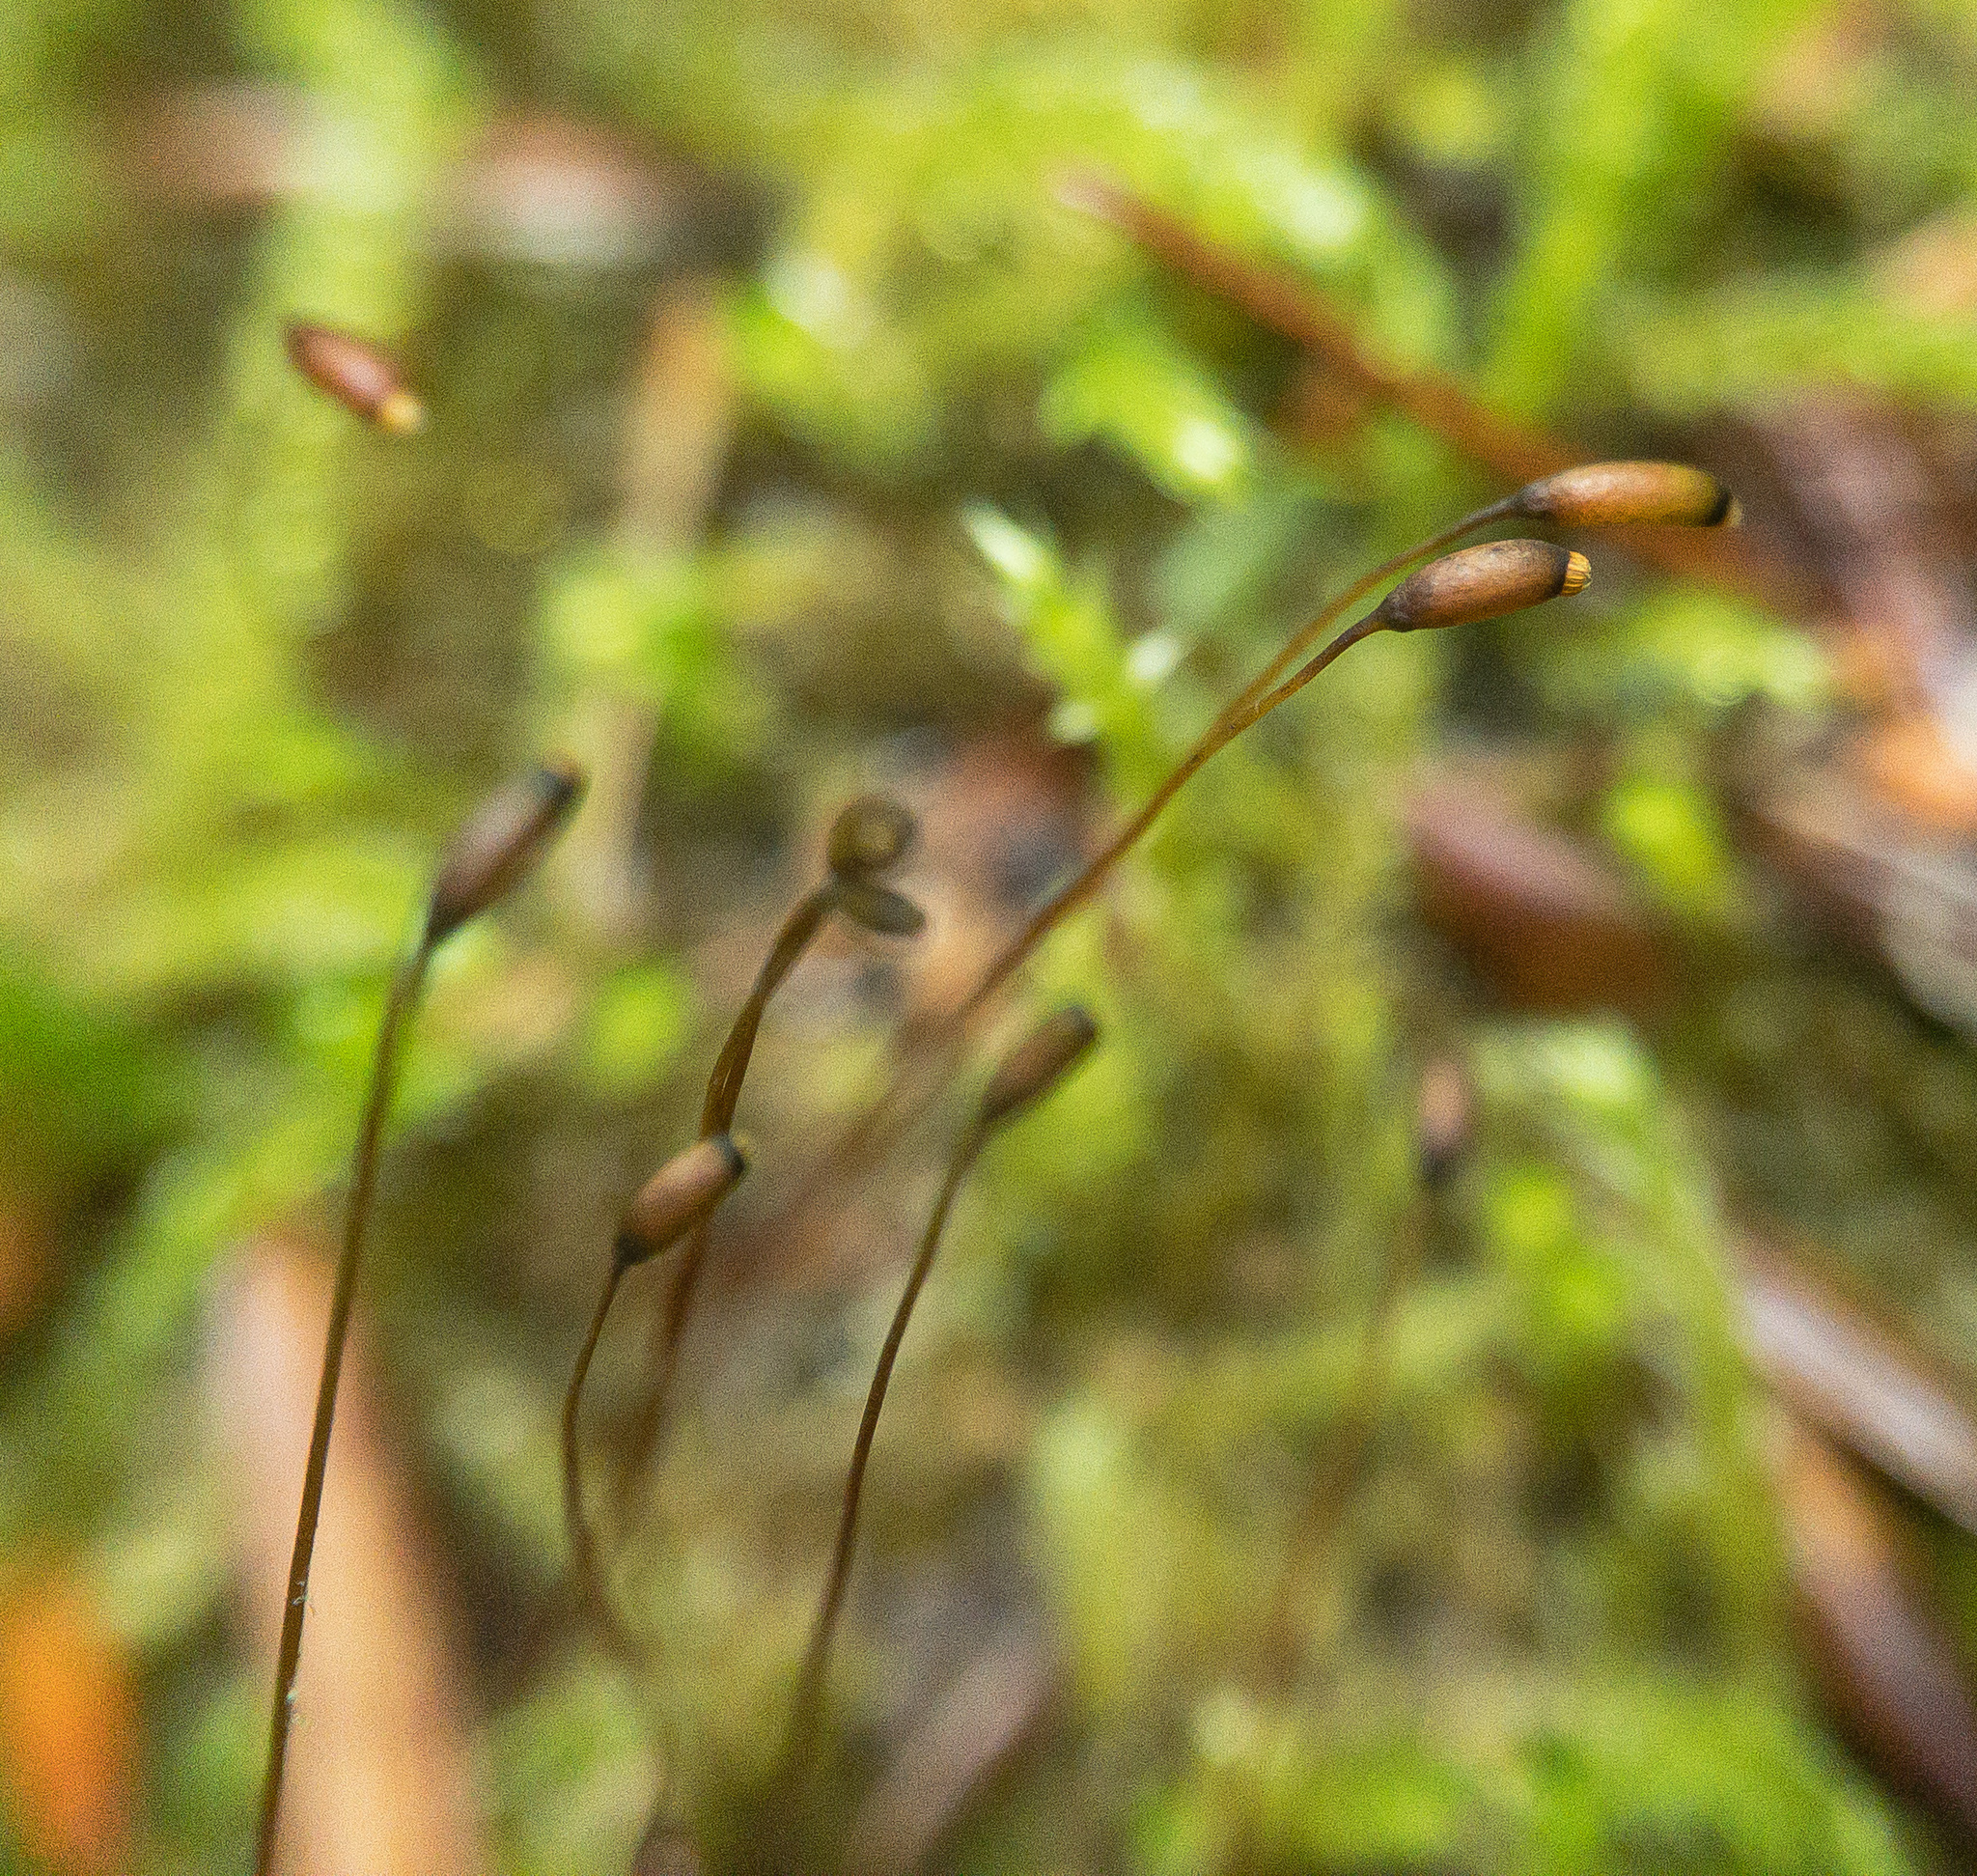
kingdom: Plantae
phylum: Bryophyta
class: Bryopsida
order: Hypnales
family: Brachytheciaceae
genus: Bryoandersonia
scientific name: Bryoandersonia illecebra
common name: Spoon-leaved moss
